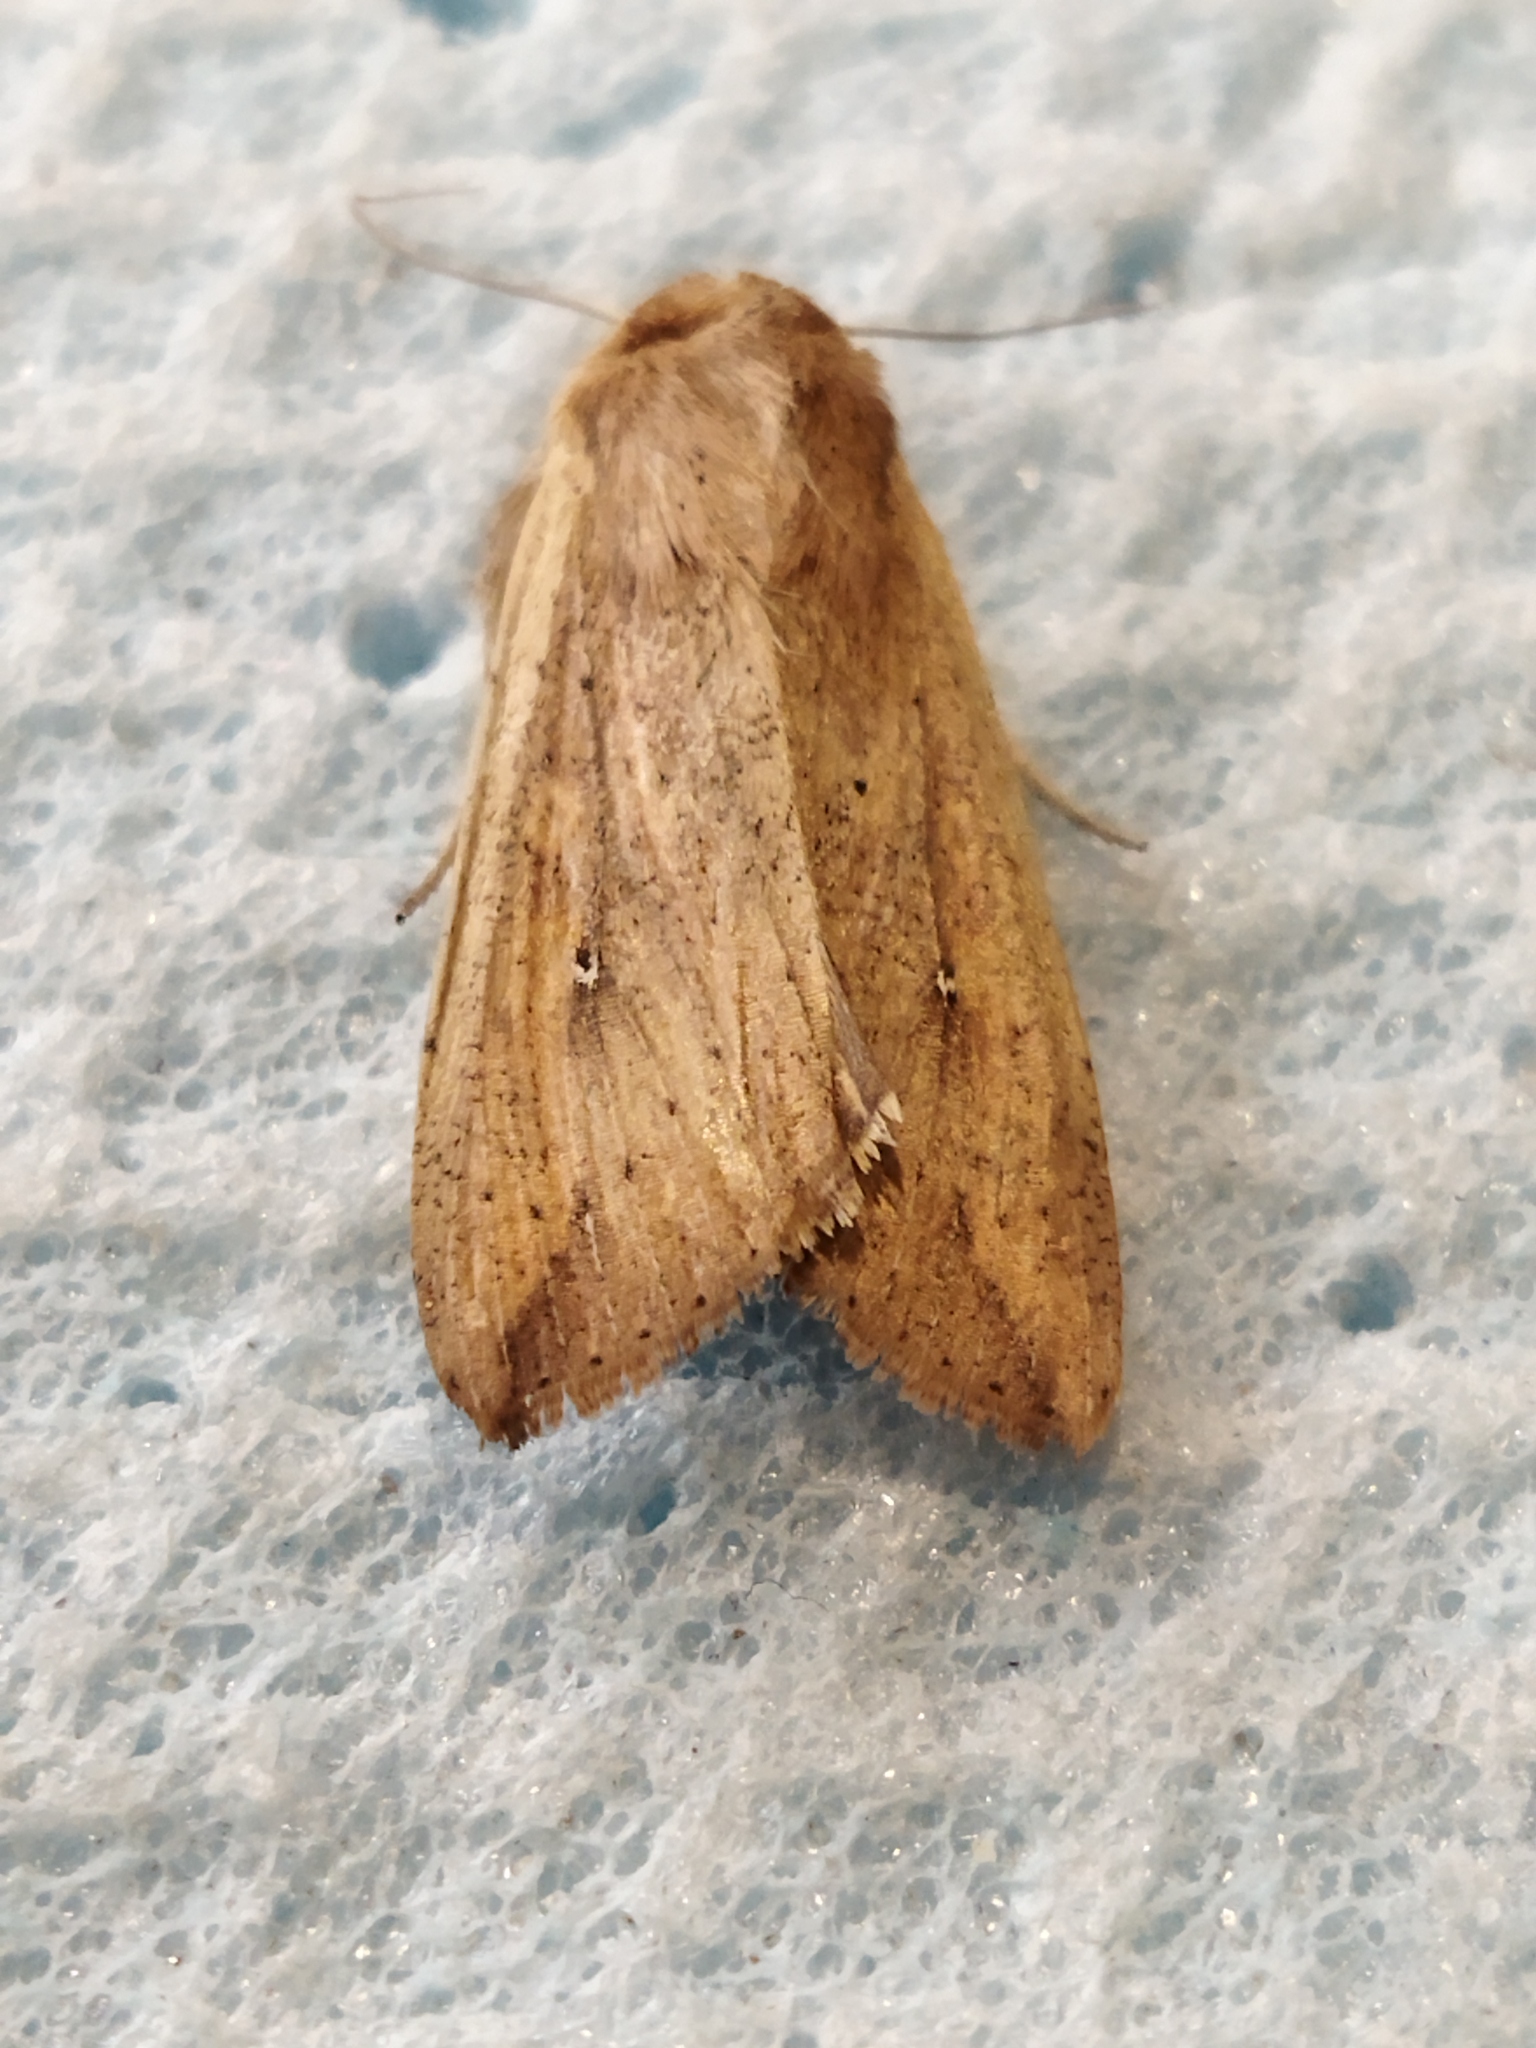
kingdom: Animalia
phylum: Arthropoda
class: Insecta
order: Lepidoptera
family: Noctuidae
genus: Mythimna
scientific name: Mythimna unipuncta
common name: White-speck
